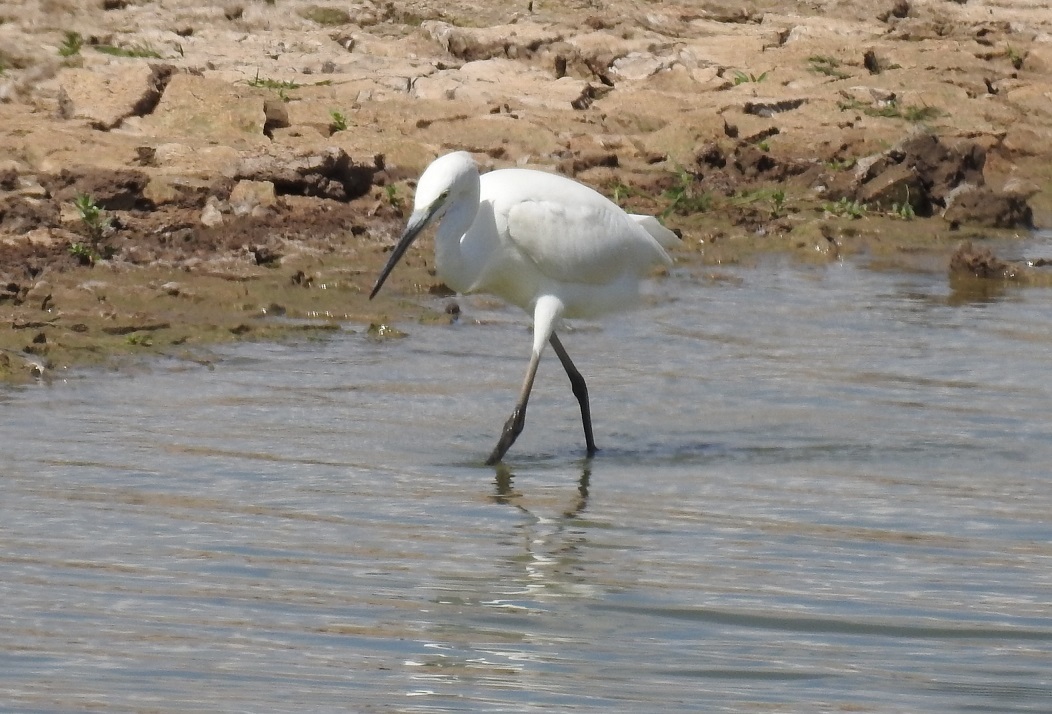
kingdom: Animalia
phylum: Chordata
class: Aves
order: Pelecaniformes
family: Ardeidae
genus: Egretta
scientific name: Egretta garzetta
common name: Little egret
